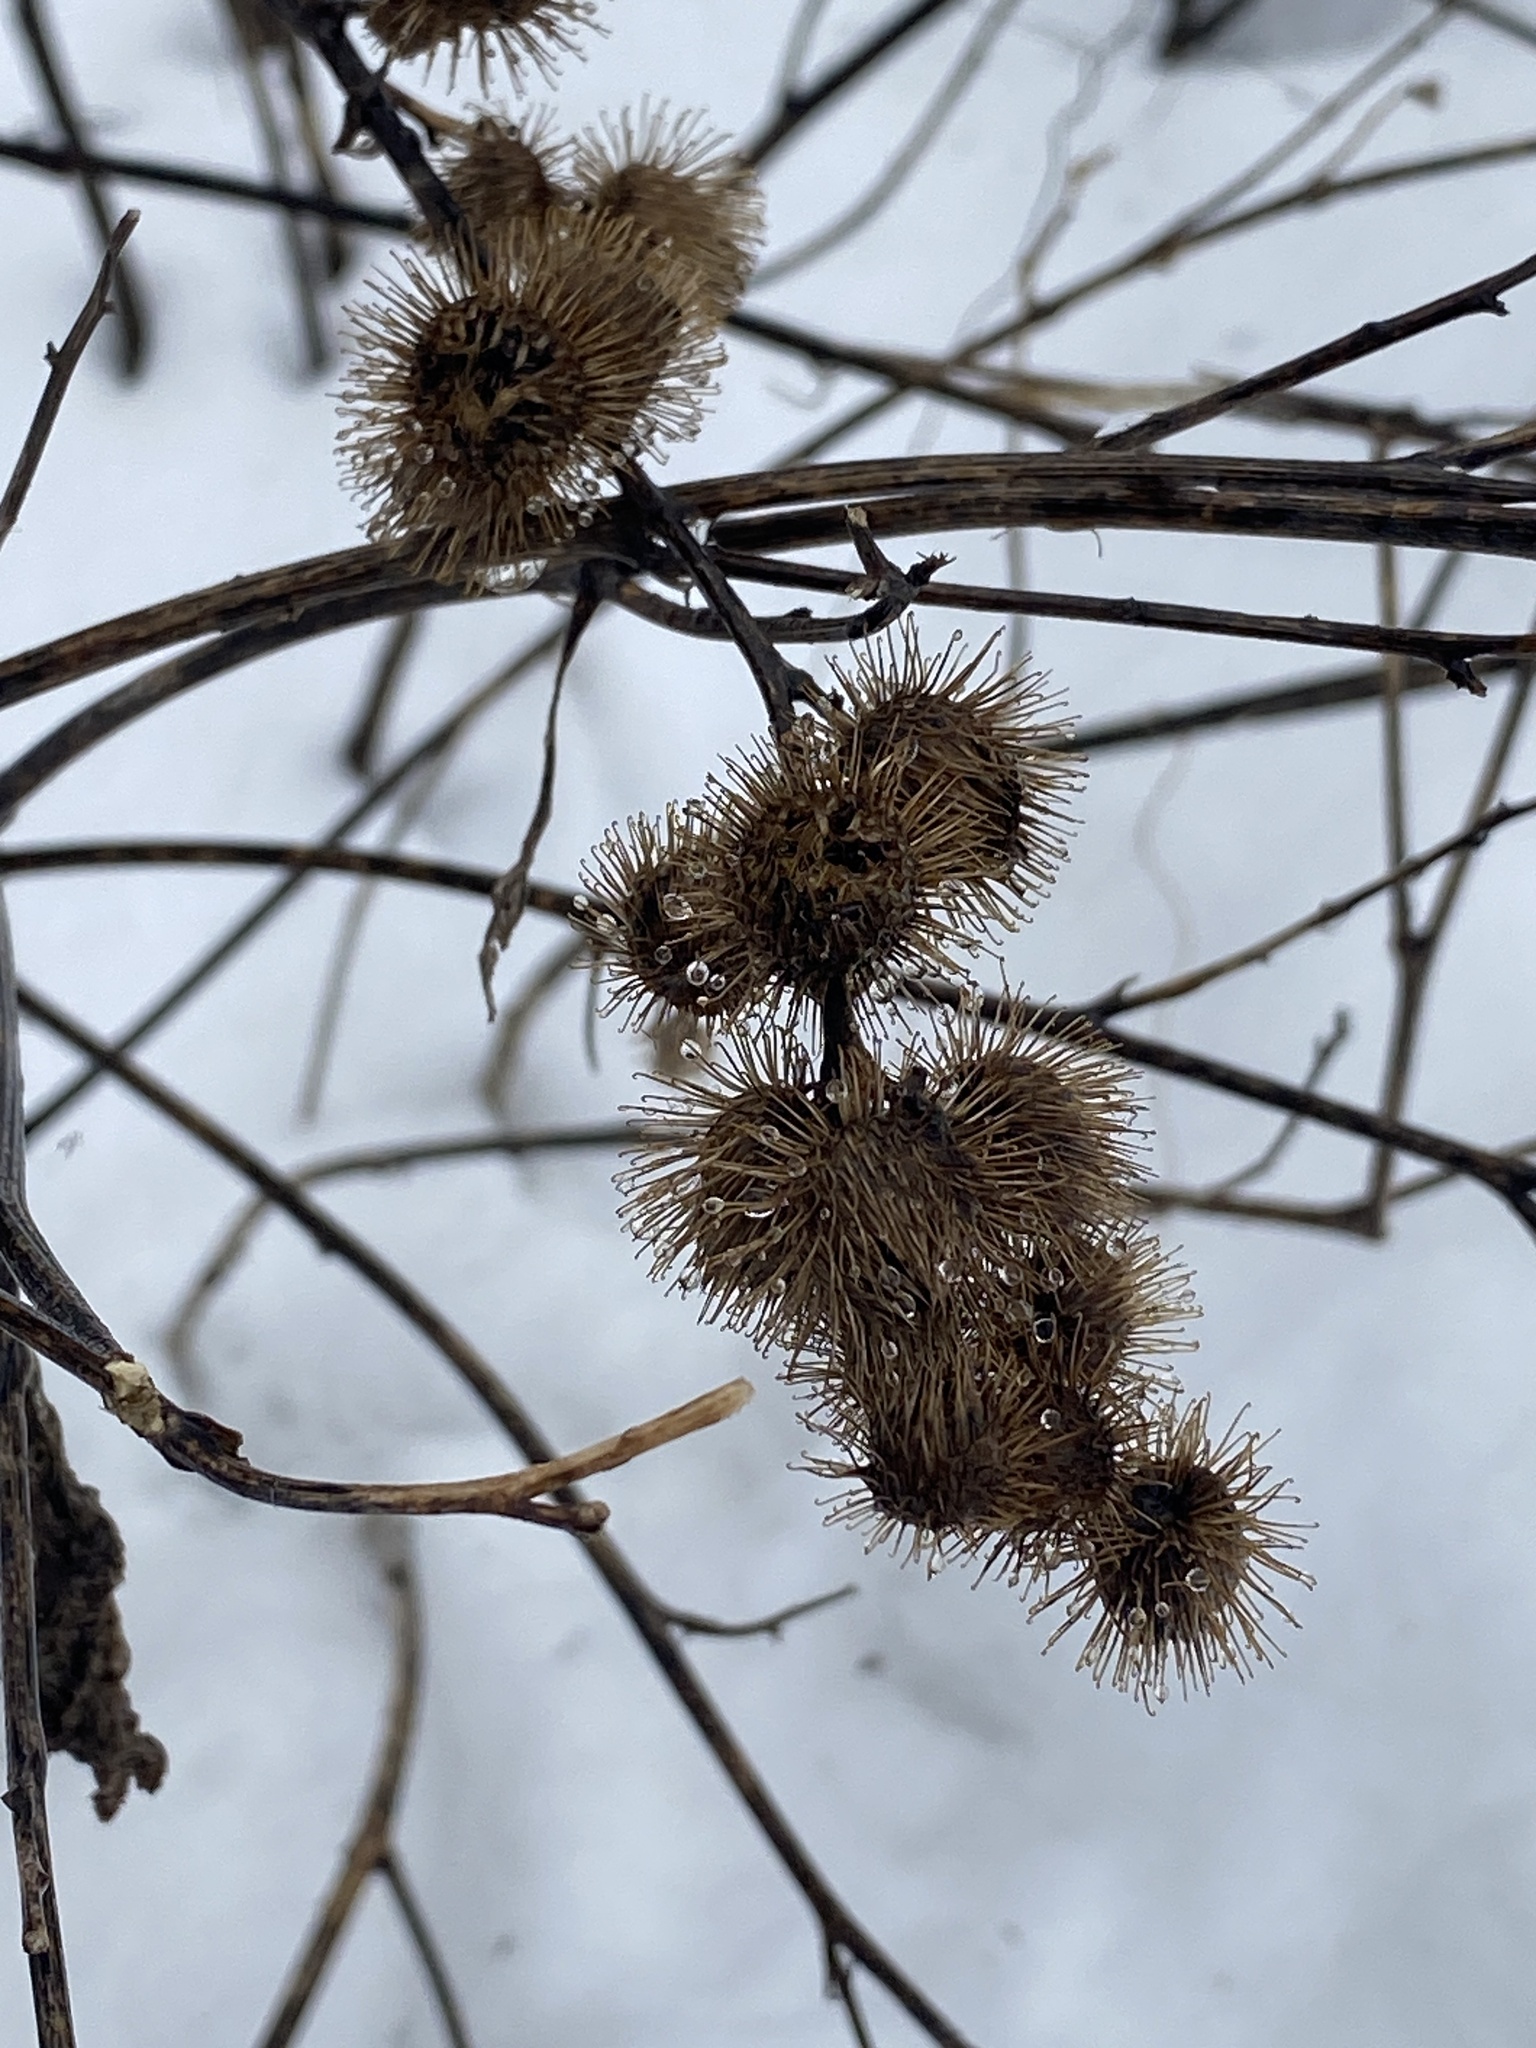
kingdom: Plantae
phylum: Tracheophyta
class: Magnoliopsida
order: Asterales
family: Asteraceae
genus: Arctium
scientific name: Arctium minus
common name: Lesser burdock
